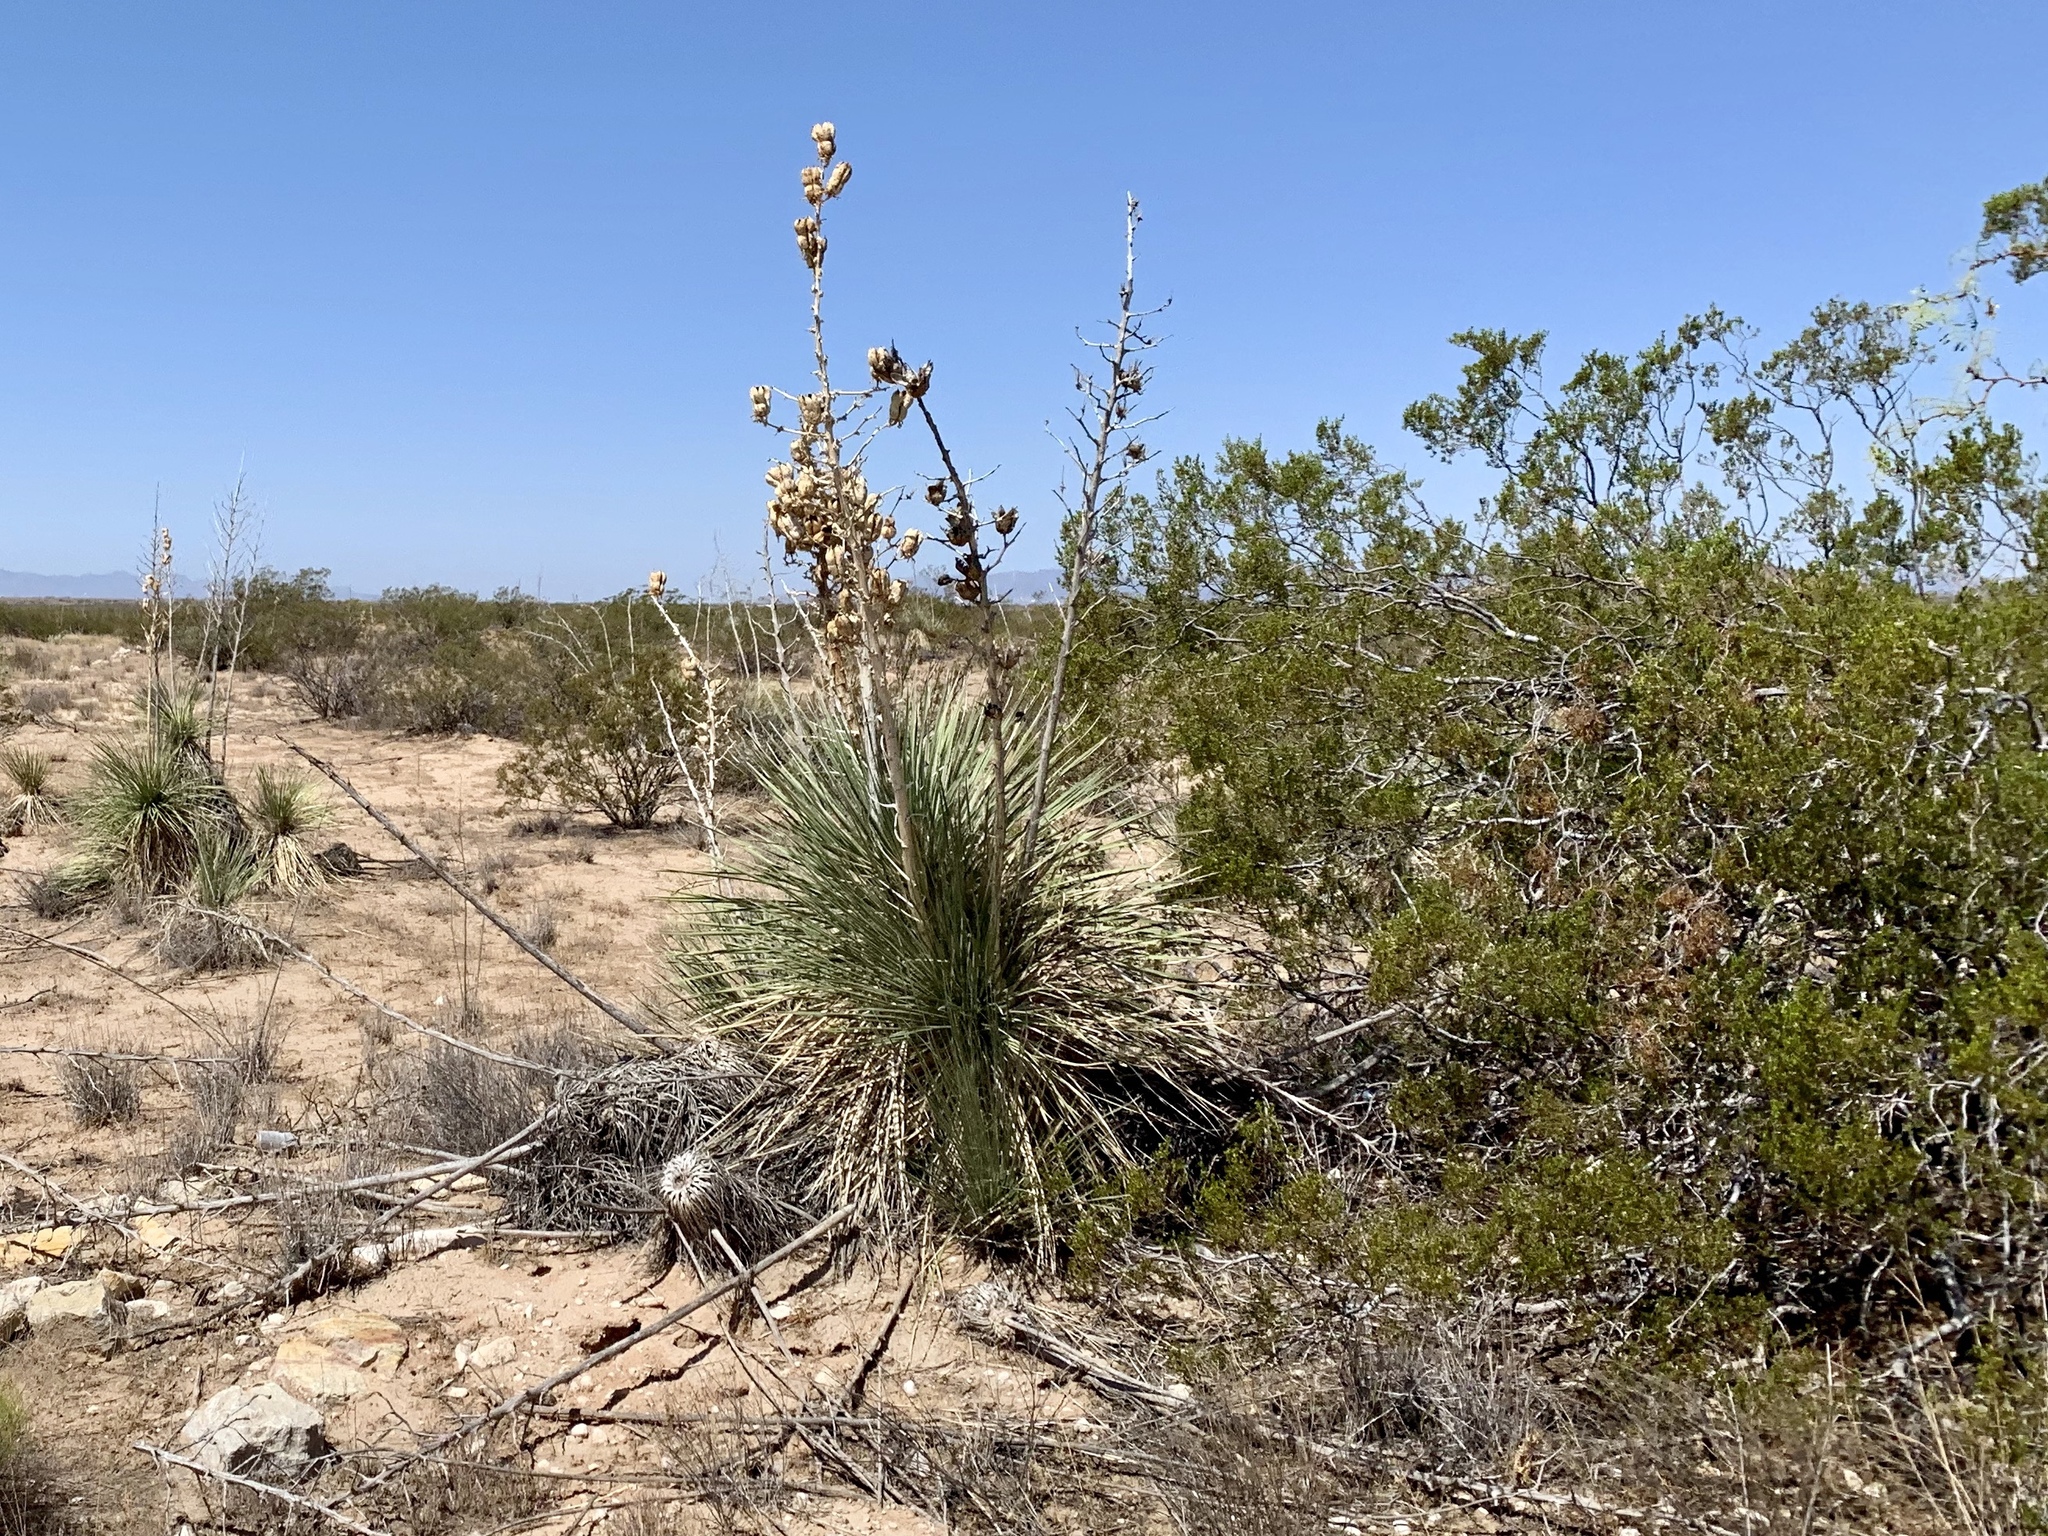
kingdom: Plantae
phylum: Tracheophyta
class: Liliopsida
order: Asparagales
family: Asparagaceae
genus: Yucca
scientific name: Yucca elata
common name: Palmella
